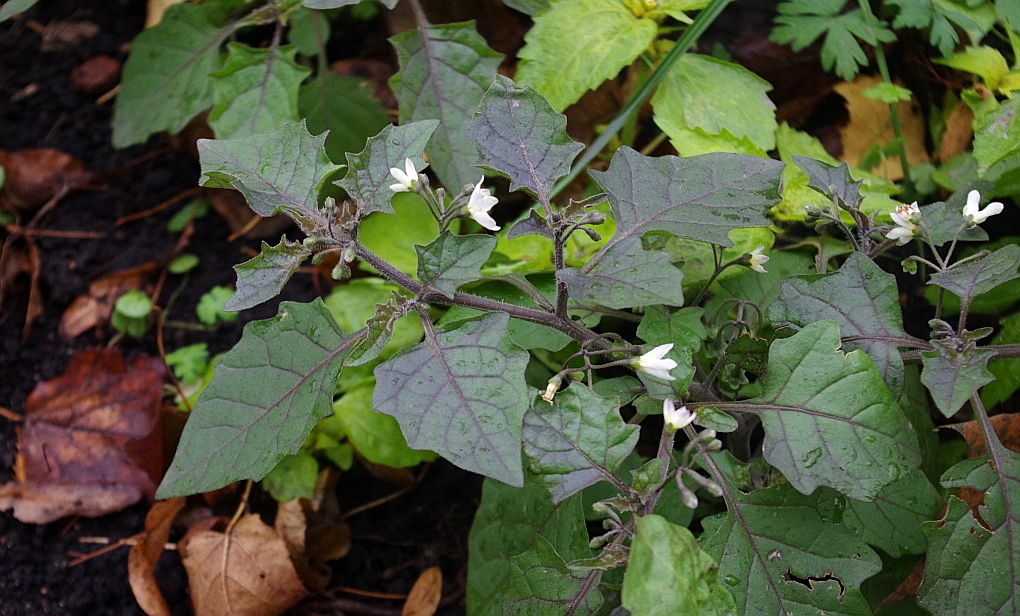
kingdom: Plantae
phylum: Tracheophyta
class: Magnoliopsida
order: Solanales
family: Solanaceae
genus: Solanum
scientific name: Solanum nigrum
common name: Black nightshade
